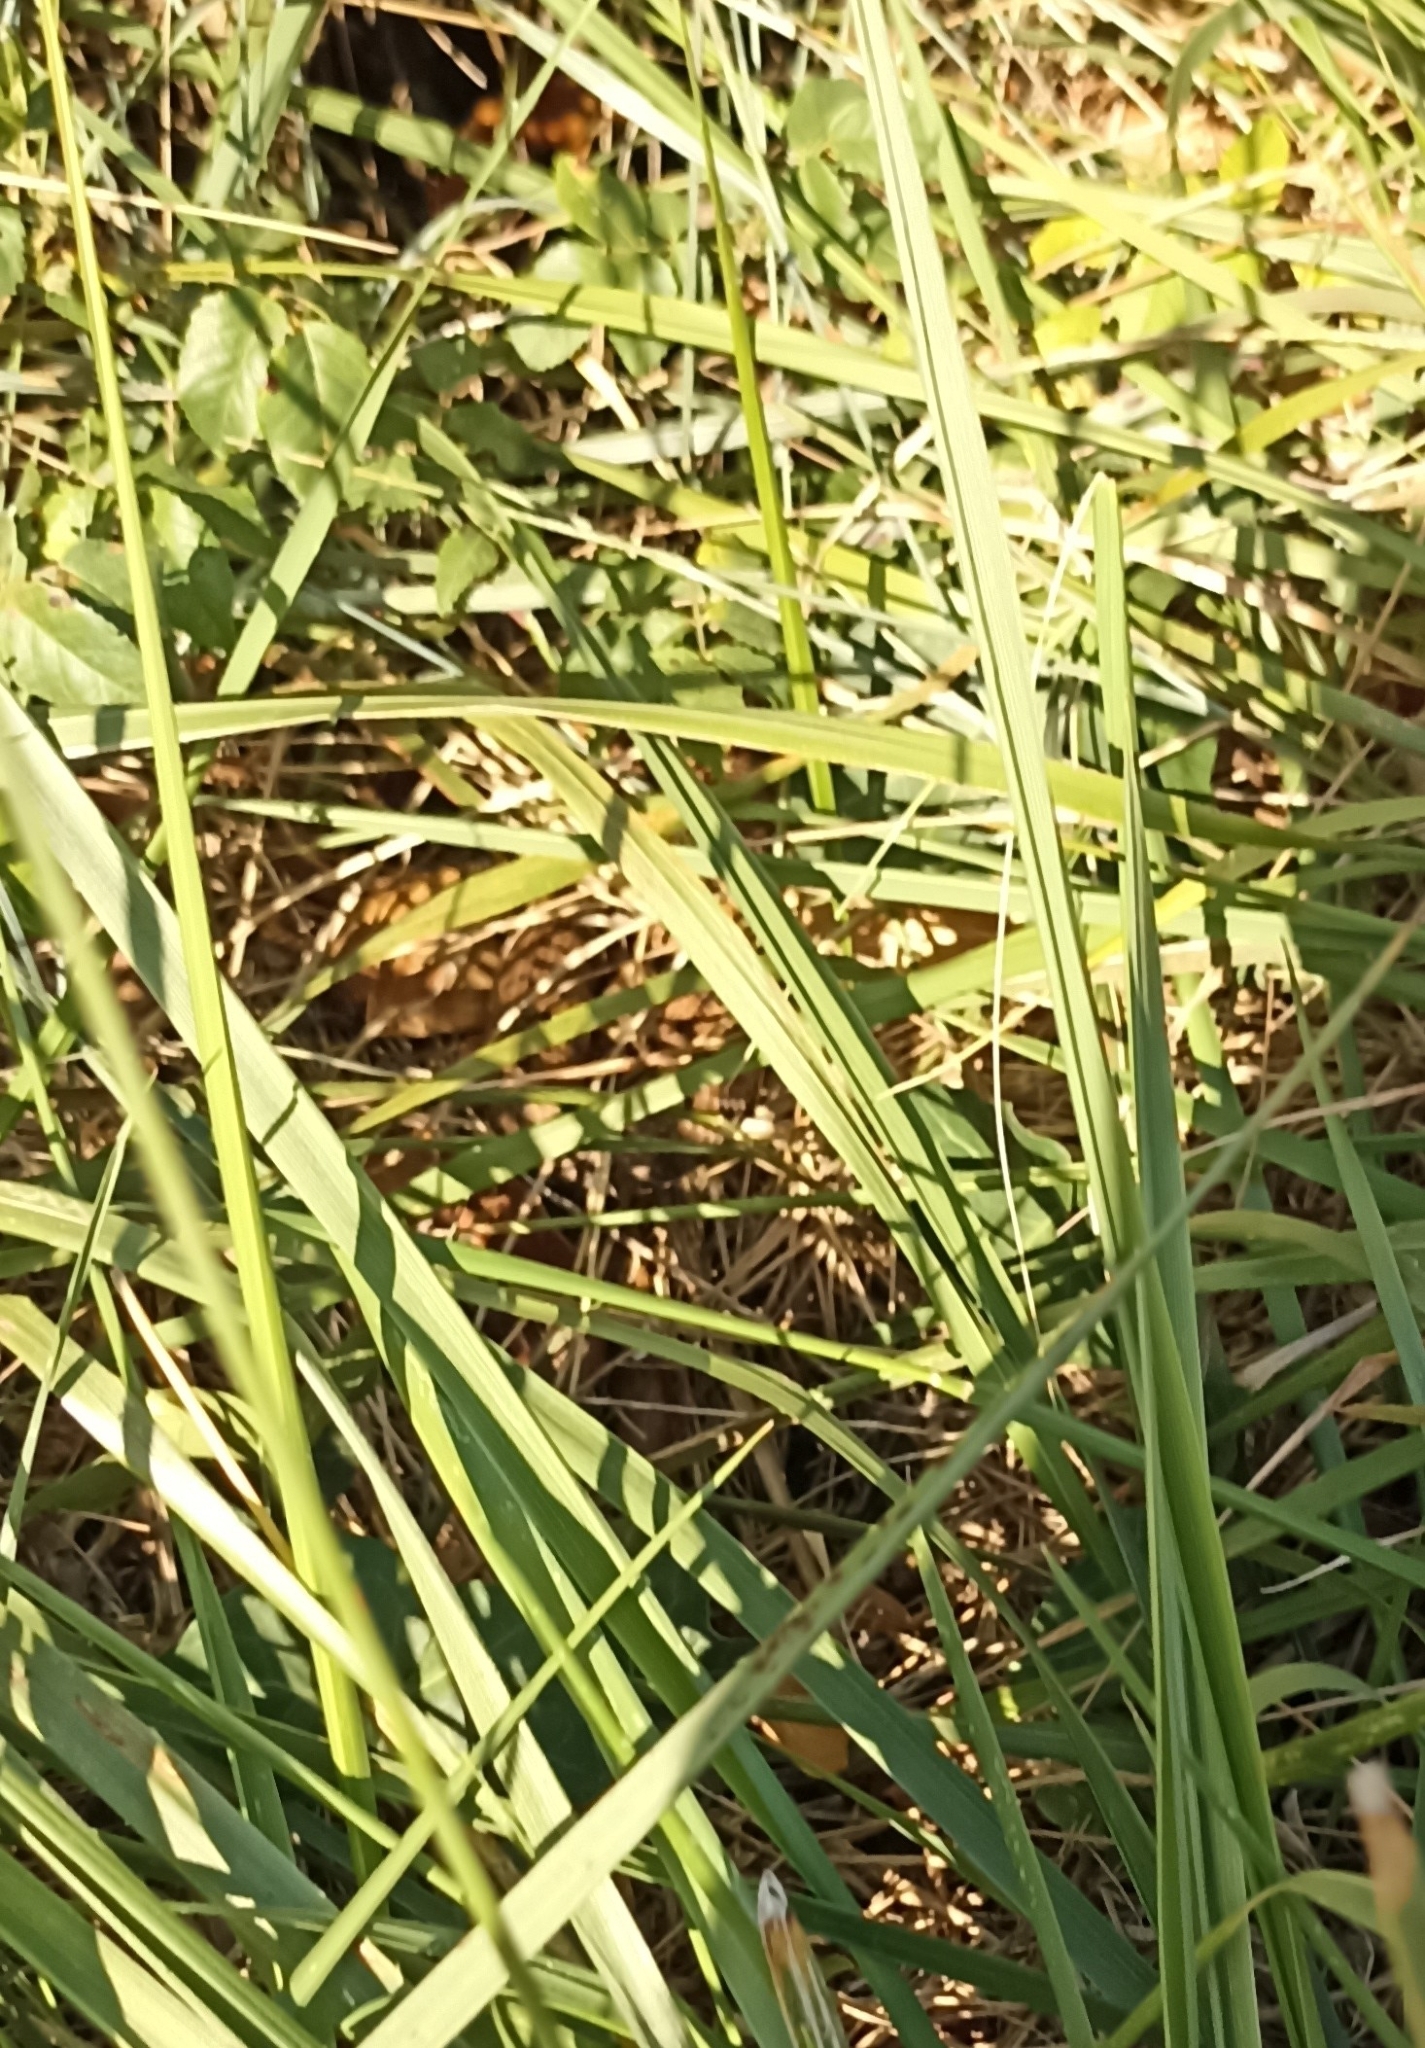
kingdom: Animalia
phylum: Chordata
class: Squamata
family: Viperidae
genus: Vipera
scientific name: Vipera aspis
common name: Asp viper
